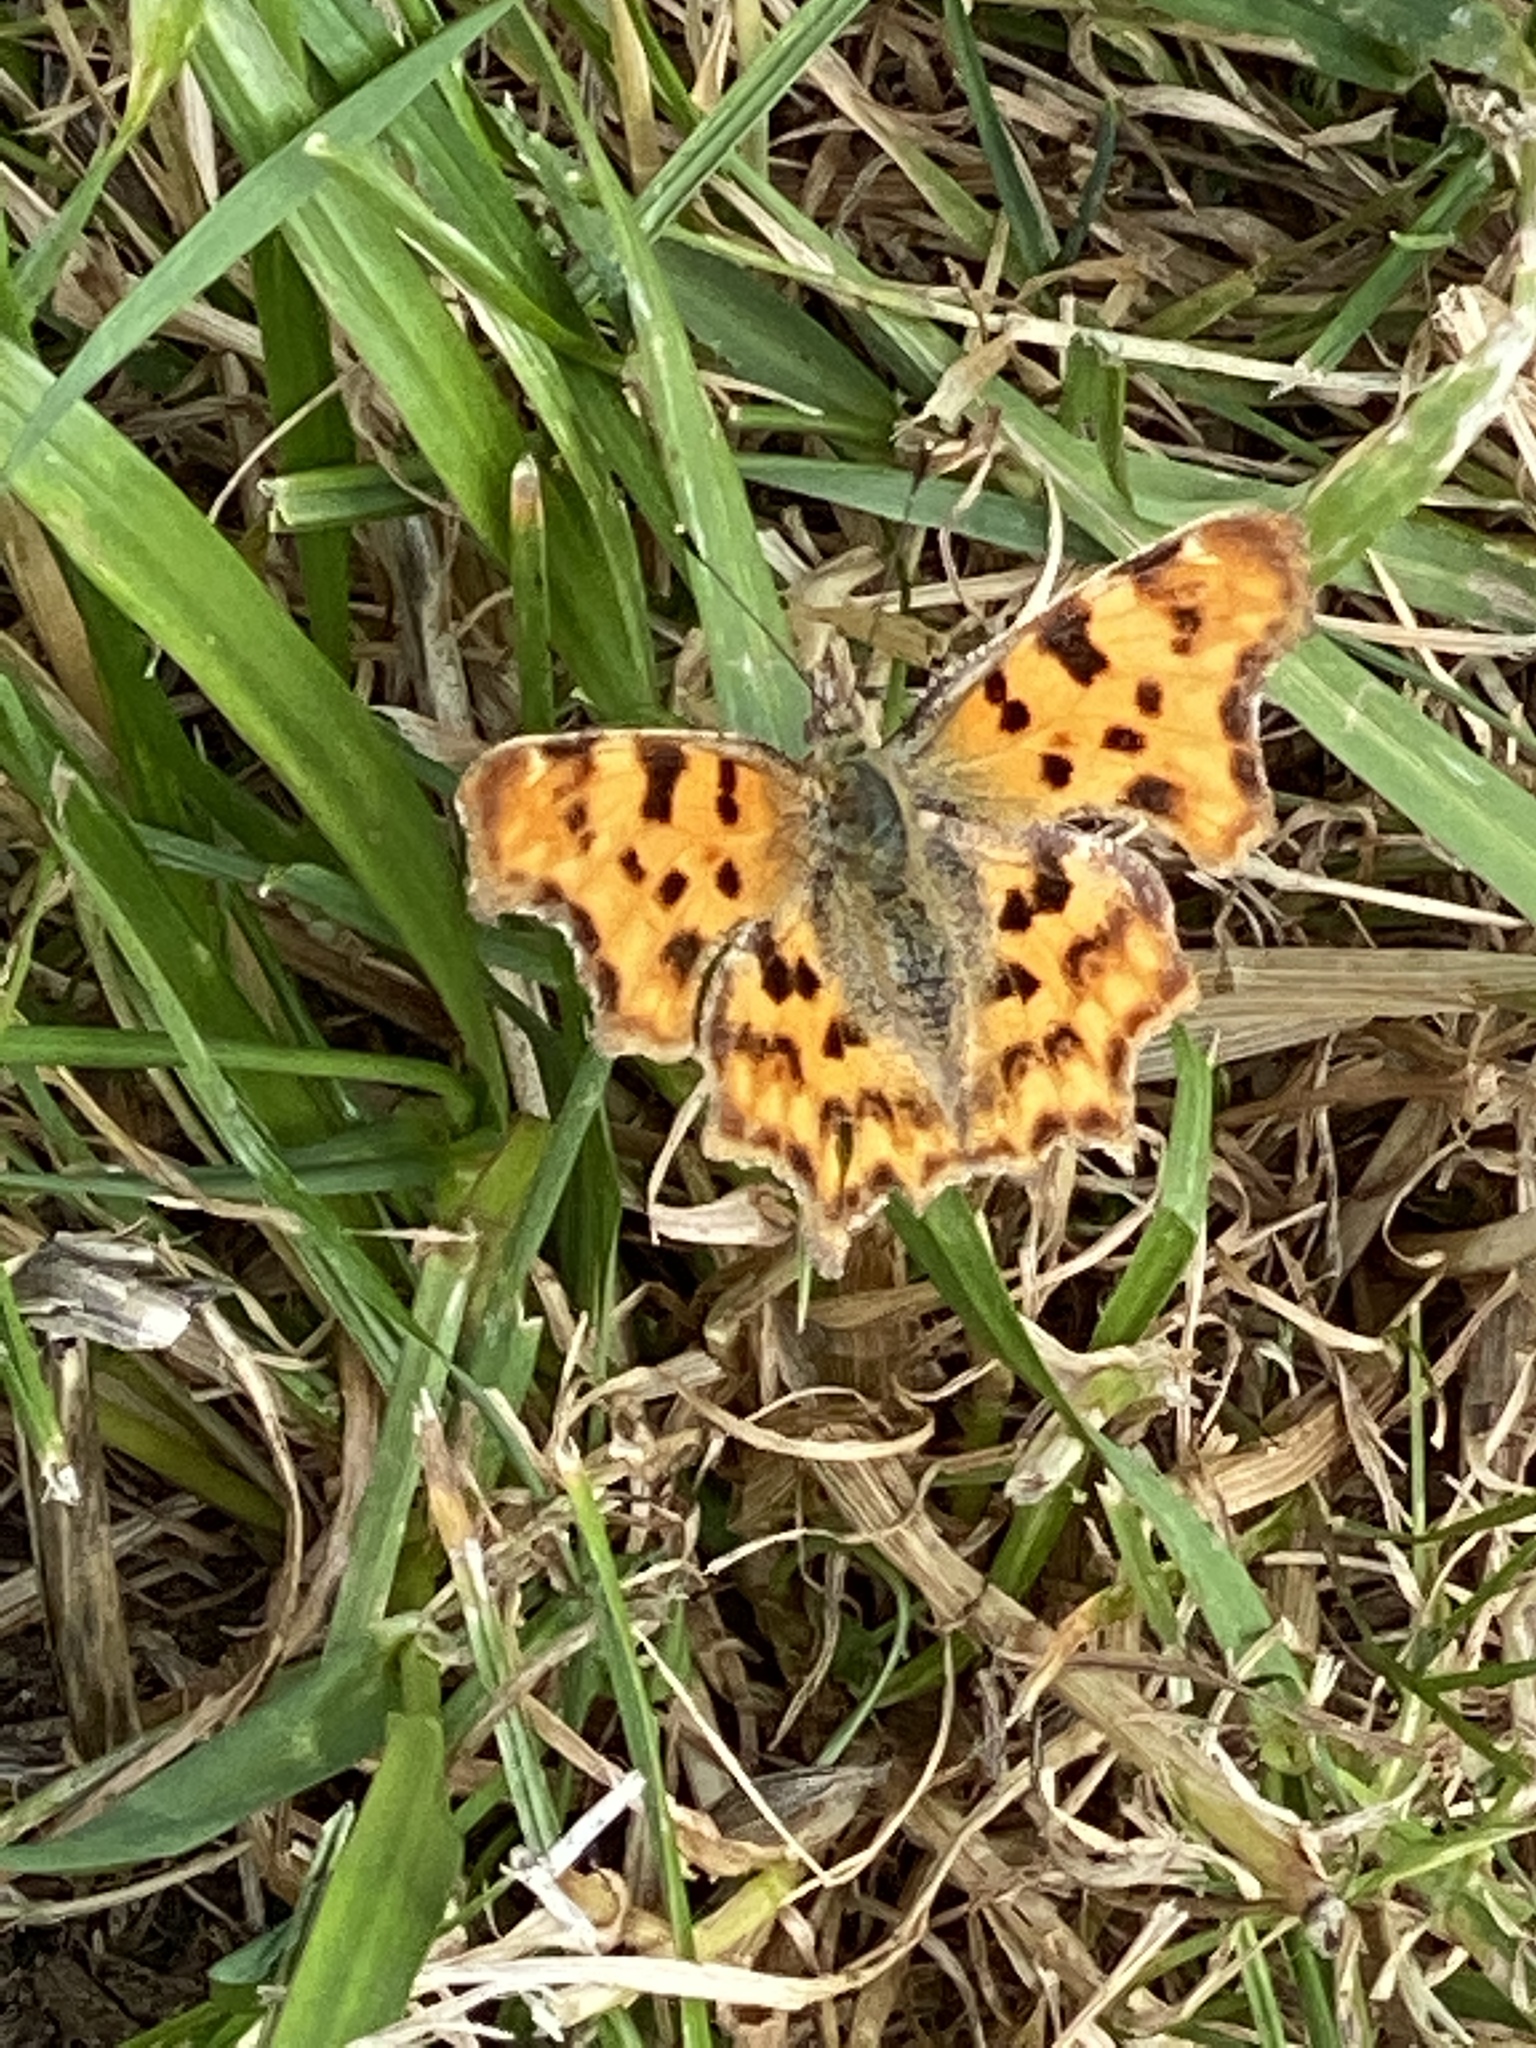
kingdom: Animalia
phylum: Arthropoda
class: Insecta
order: Lepidoptera
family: Nymphalidae
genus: Polygonia
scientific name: Polygonia c-album
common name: Comma
